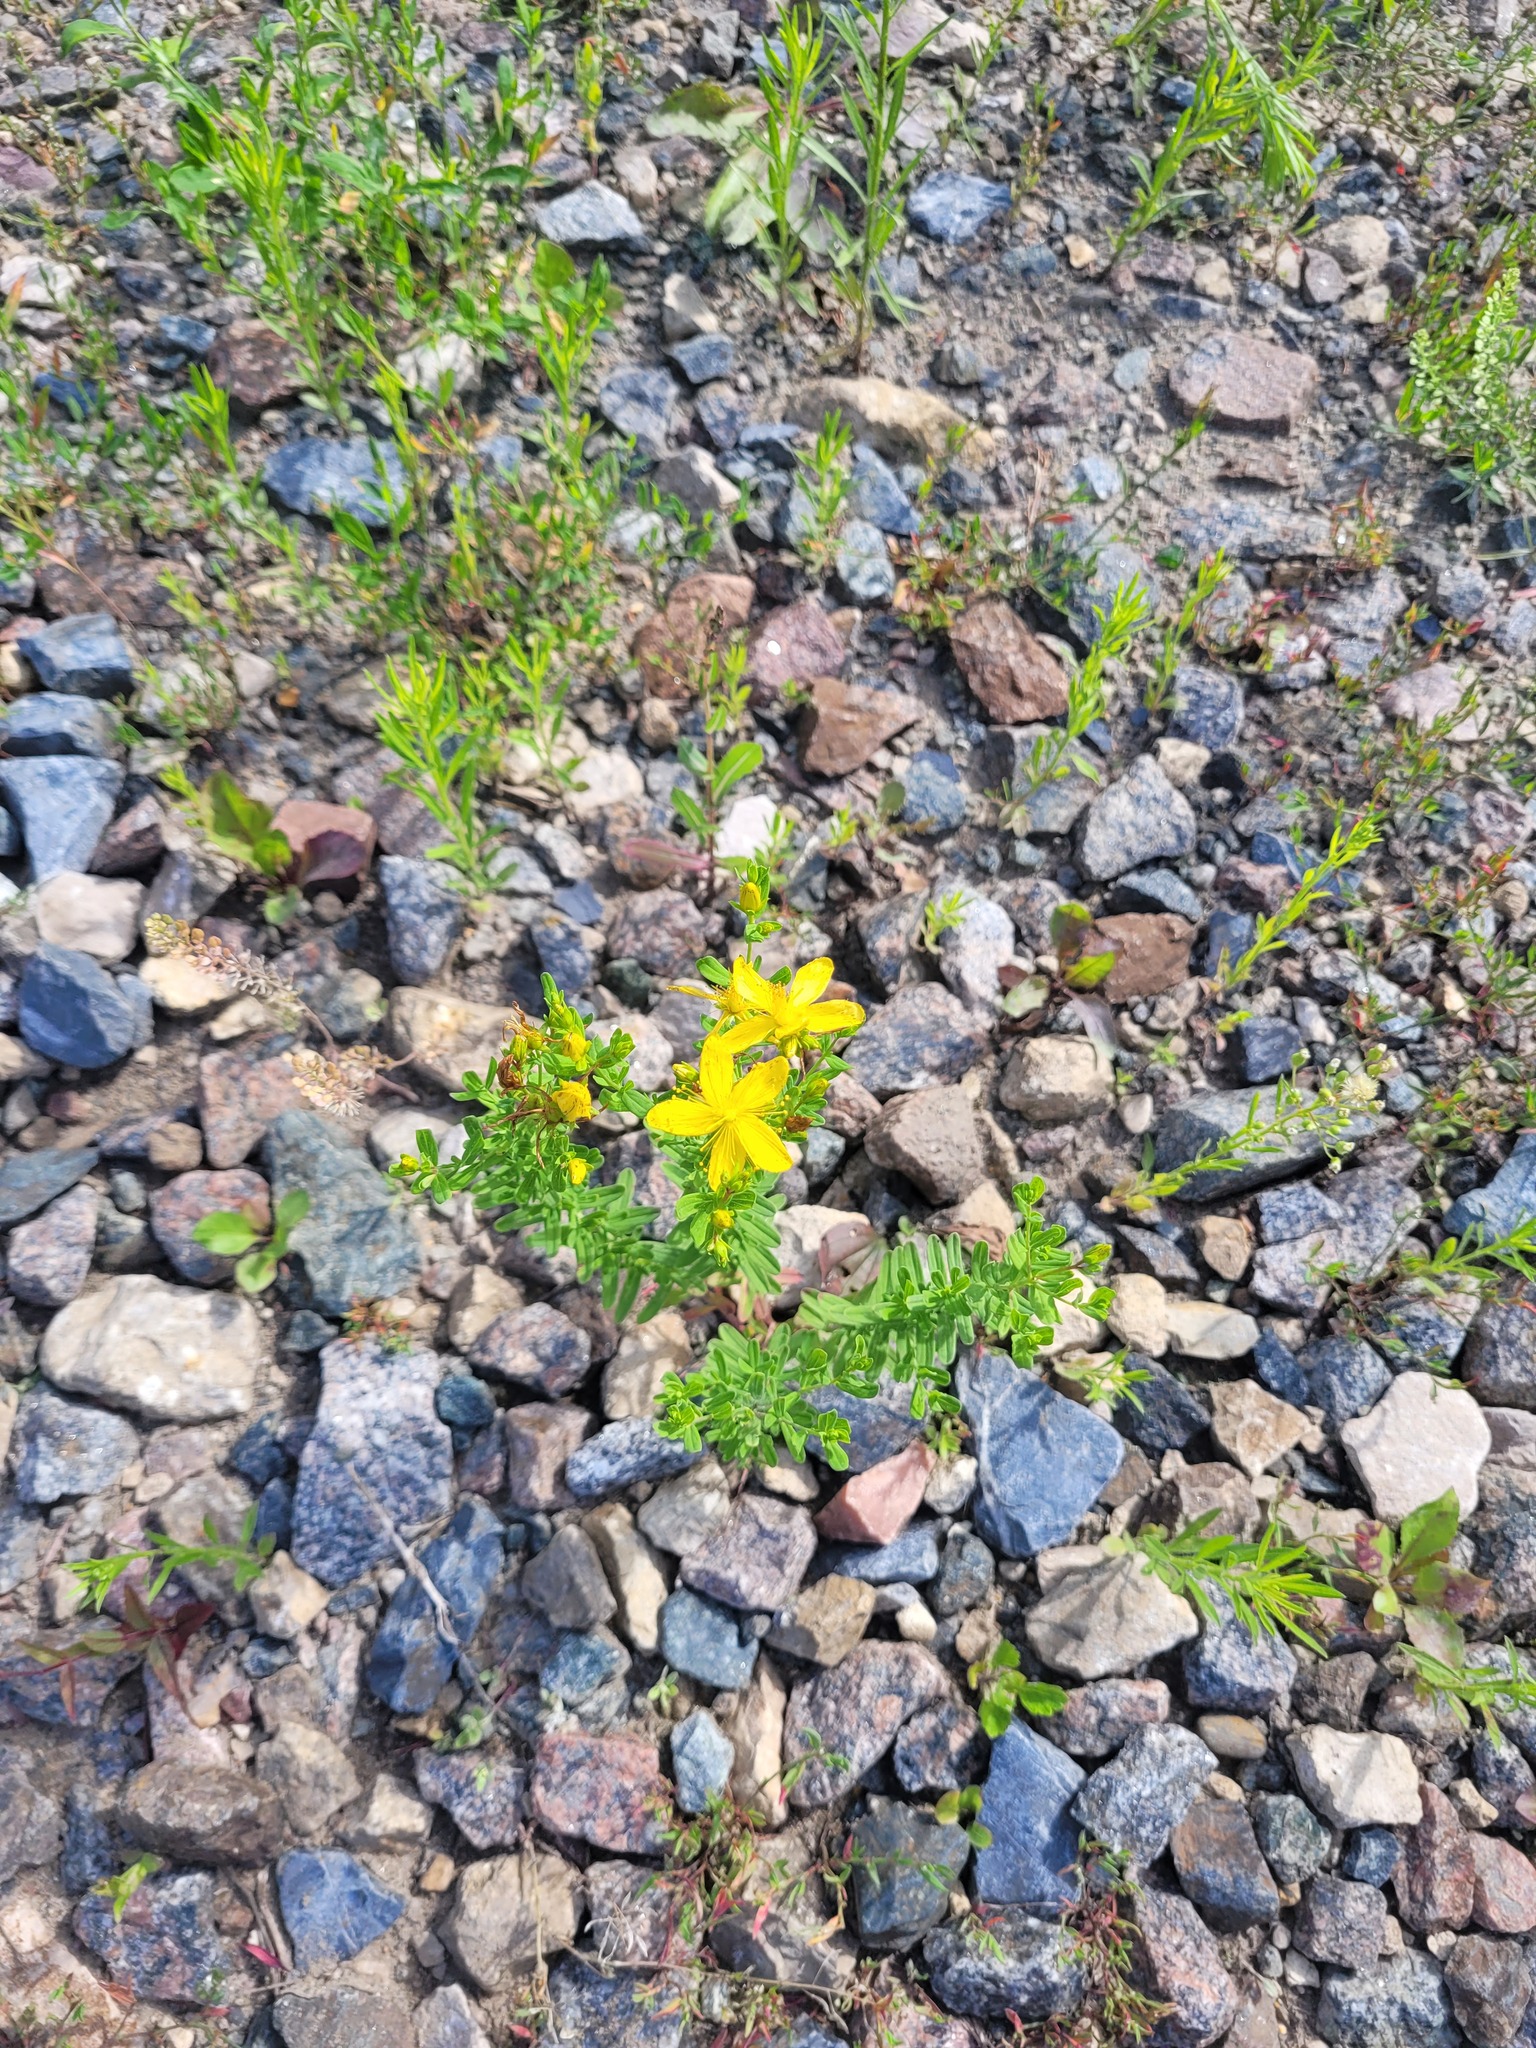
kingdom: Plantae
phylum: Tracheophyta
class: Magnoliopsida
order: Malpighiales
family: Hypericaceae
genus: Hypericum
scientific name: Hypericum perforatum
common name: Common st. johnswort
